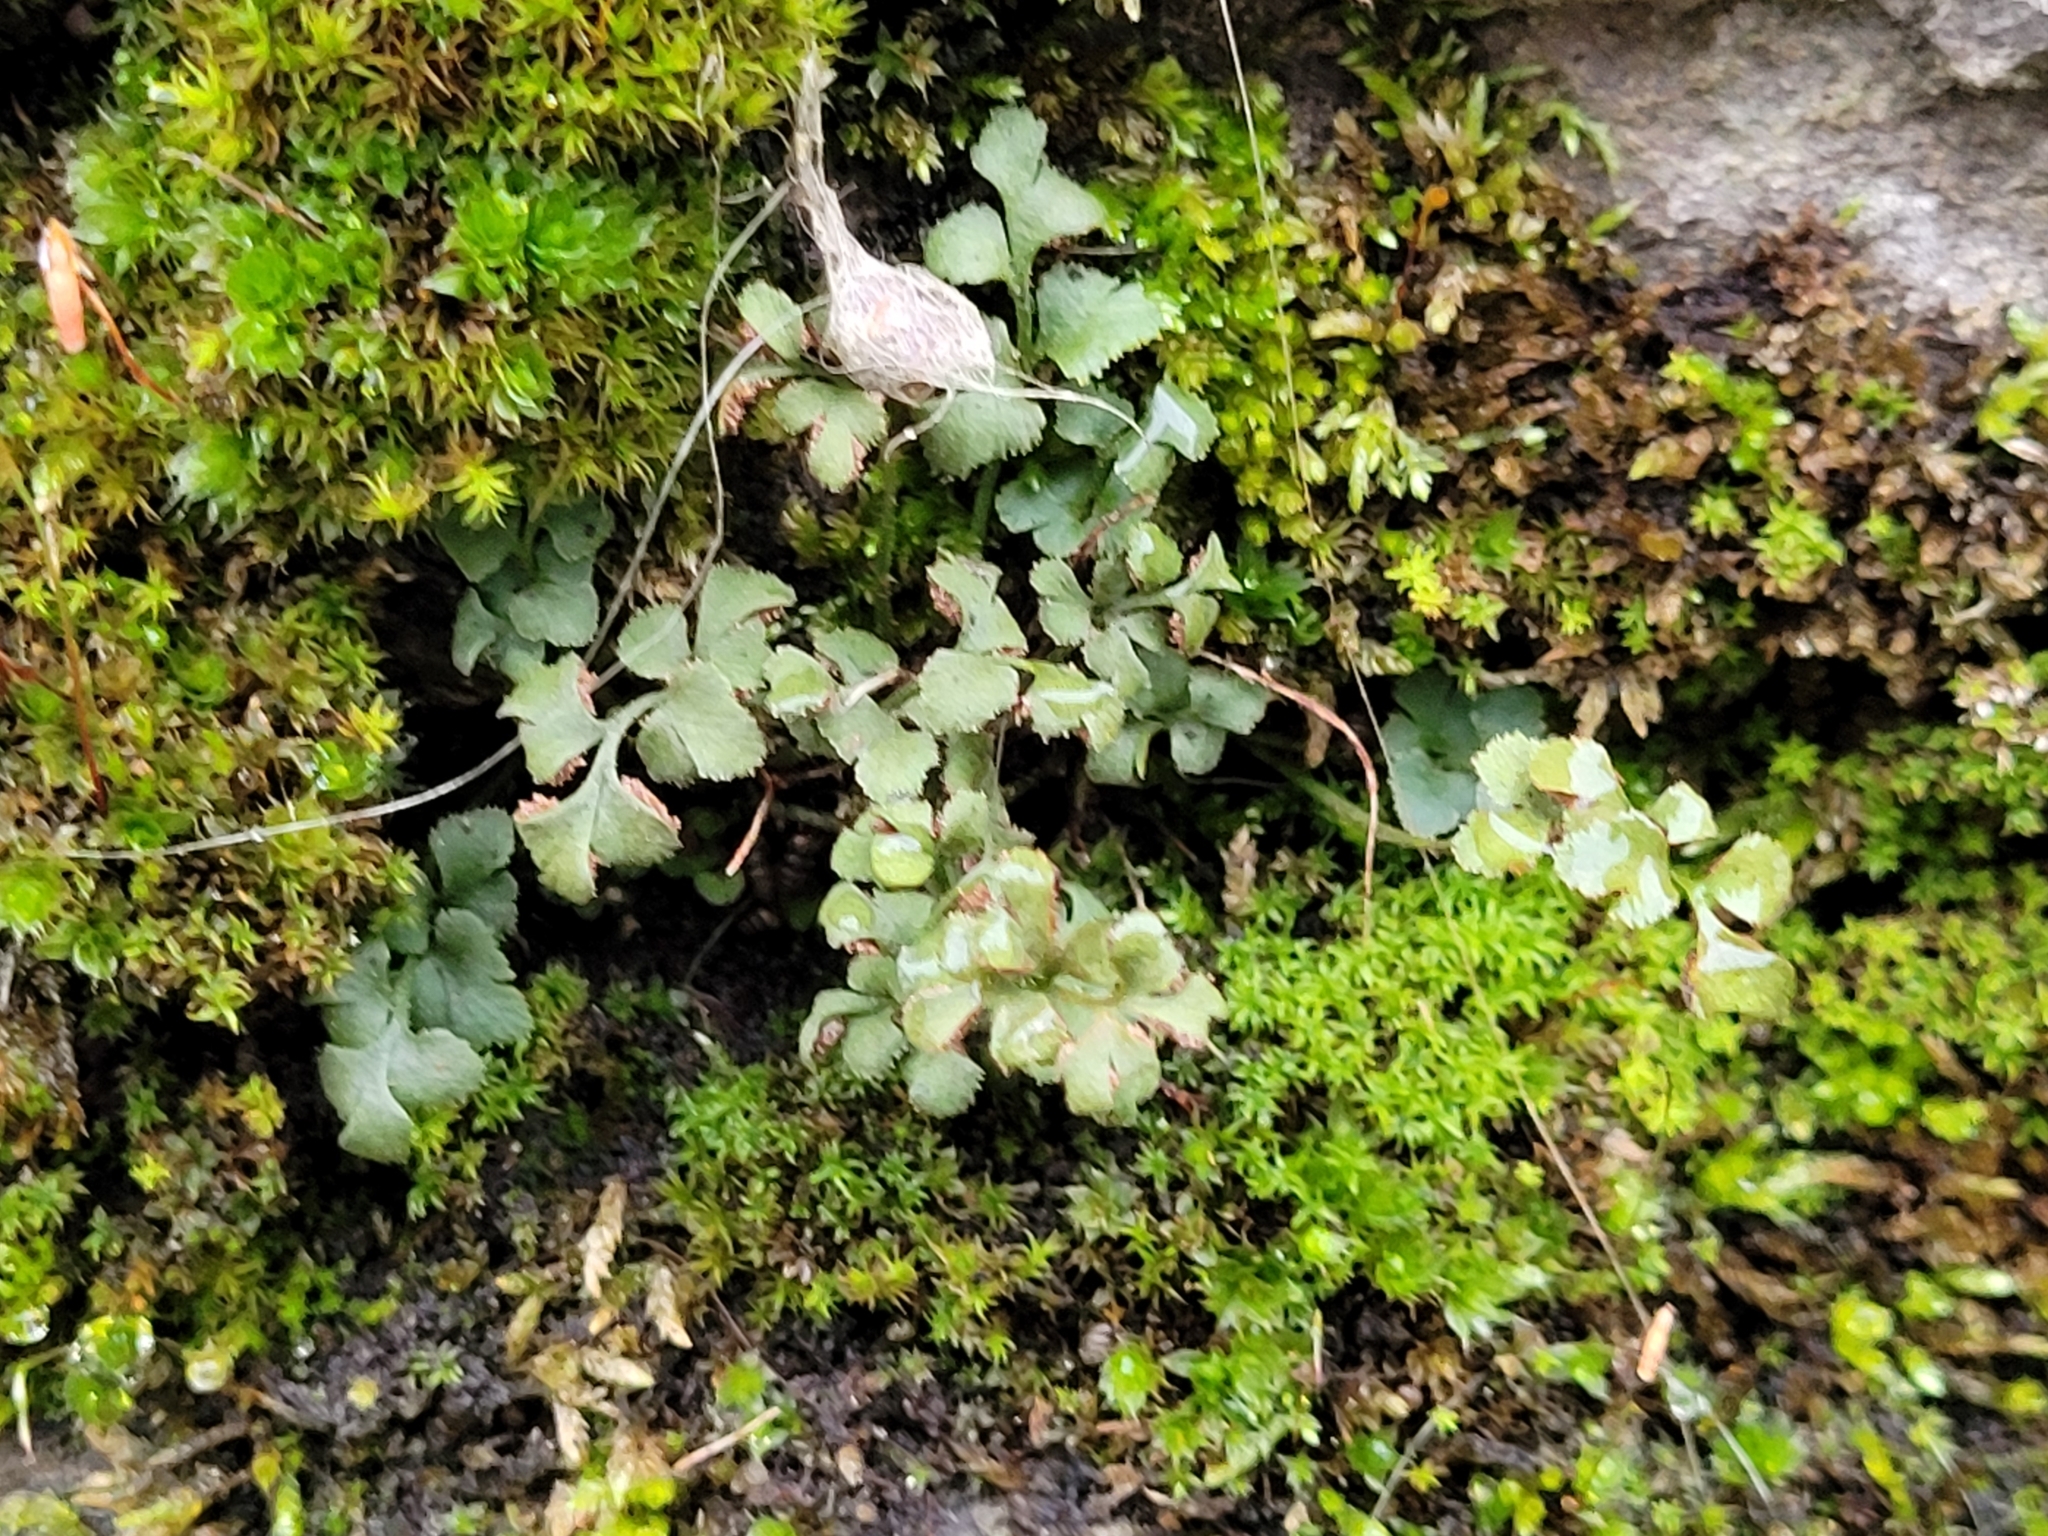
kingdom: Plantae
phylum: Tracheophyta
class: Polypodiopsida
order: Polypodiales
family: Aspleniaceae
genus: Asplenium
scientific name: Asplenium ruta-muraria
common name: Wall-rue
